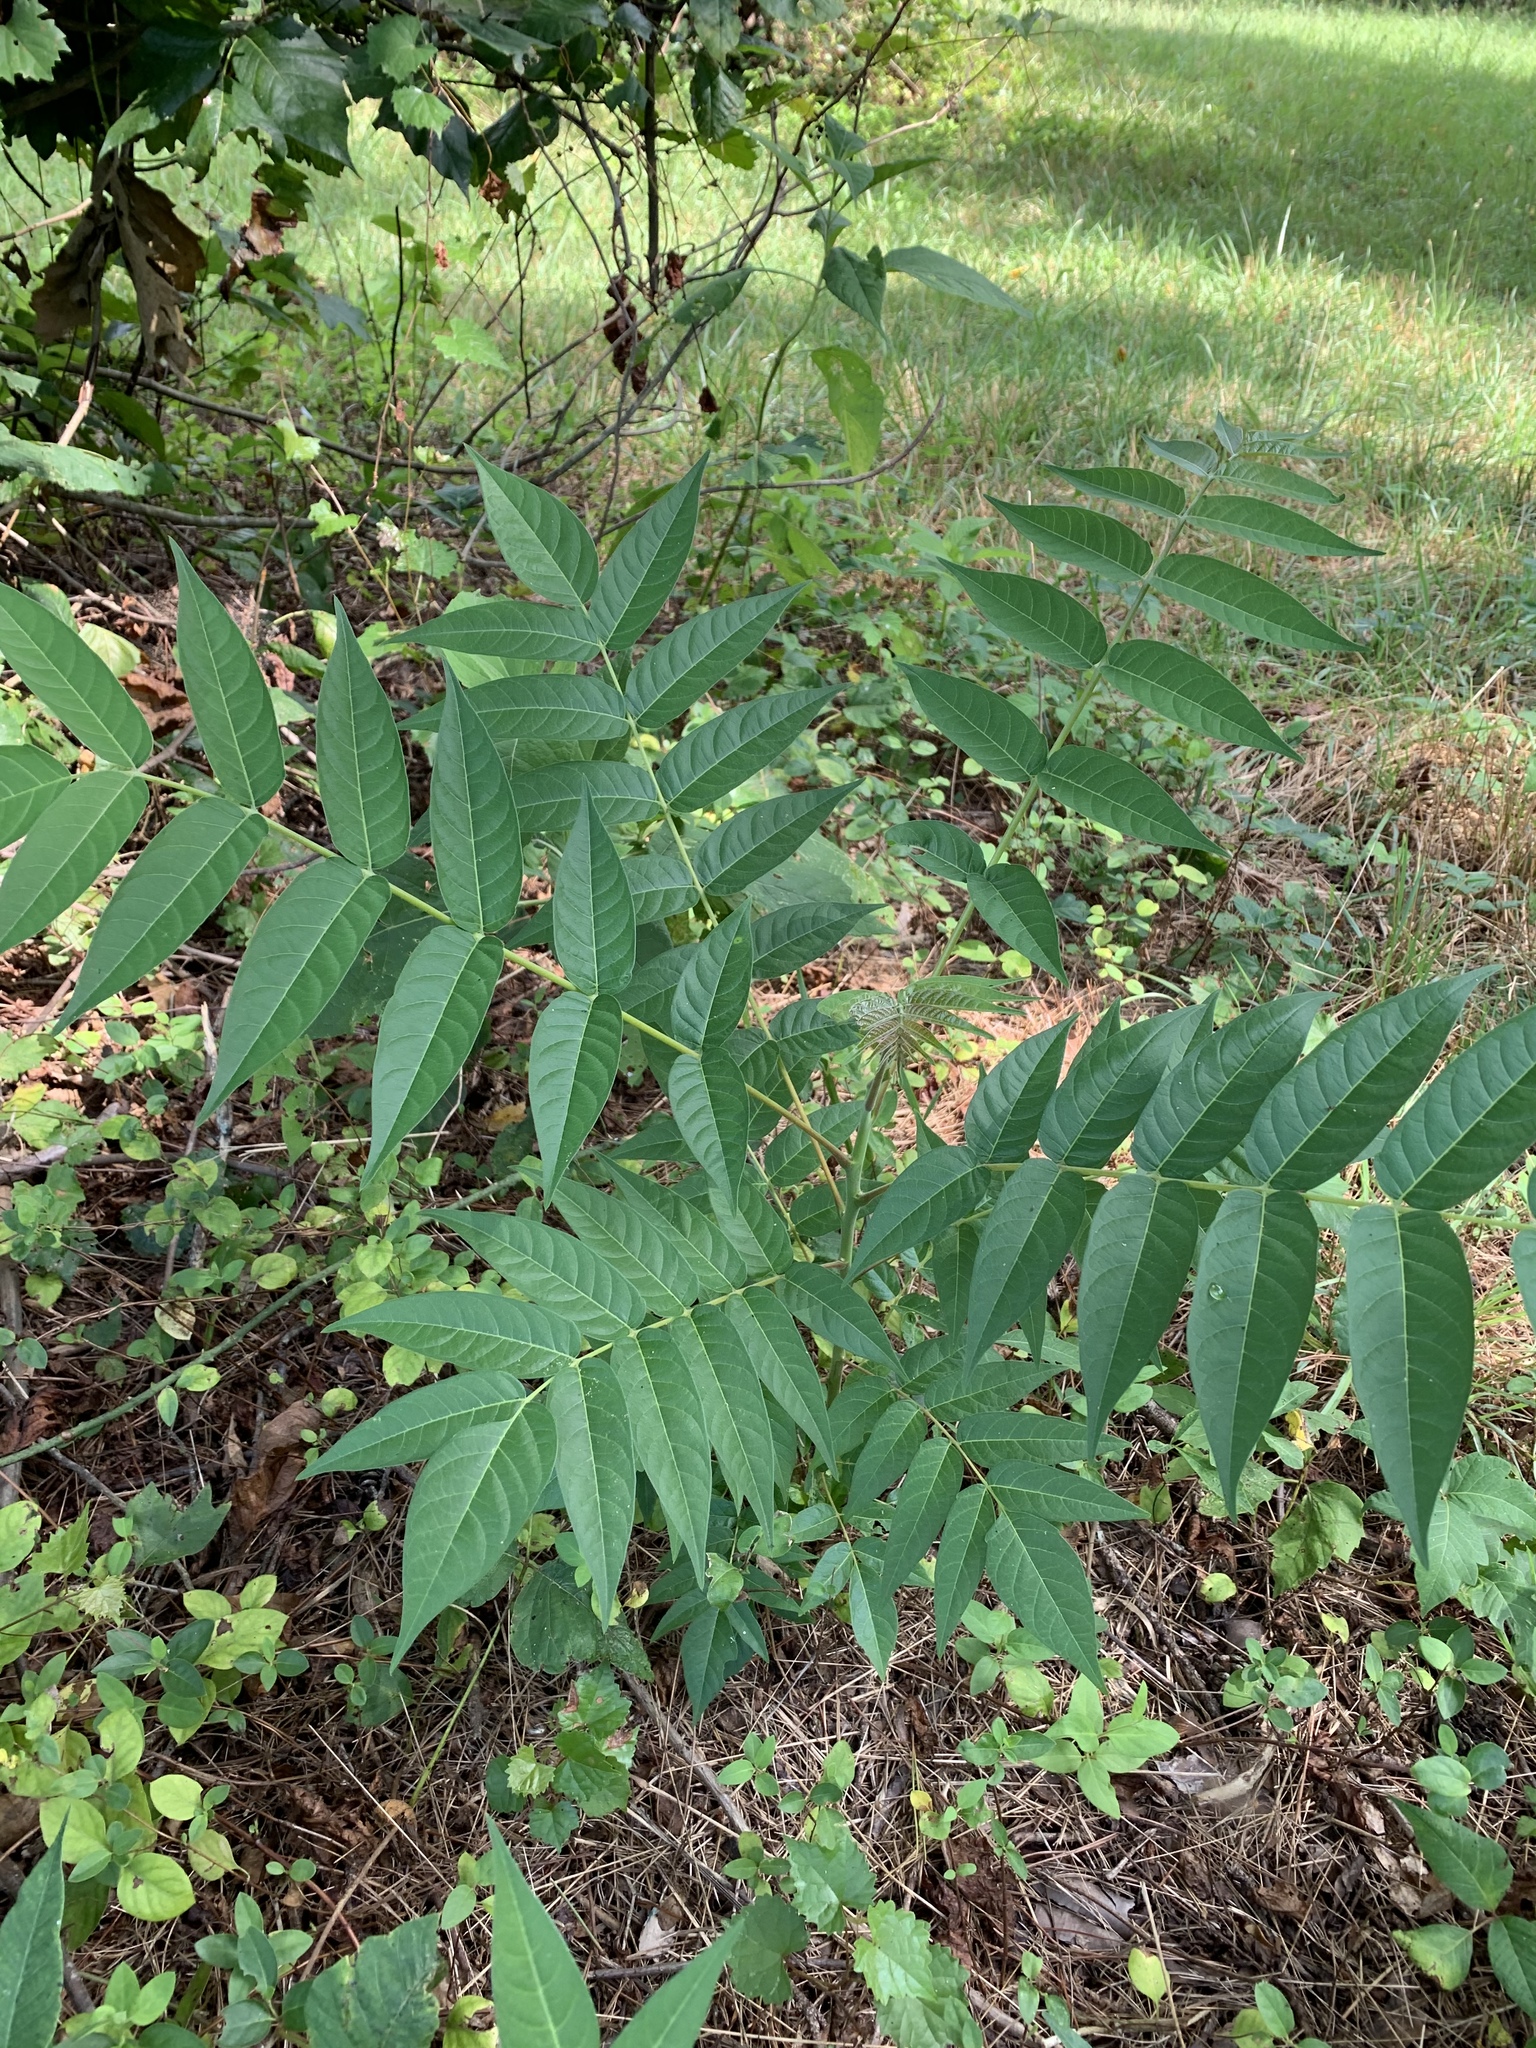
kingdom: Plantae
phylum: Tracheophyta
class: Magnoliopsida
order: Sapindales
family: Simaroubaceae
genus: Ailanthus
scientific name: Ailanthus altissima
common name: Tree-of-heaven
